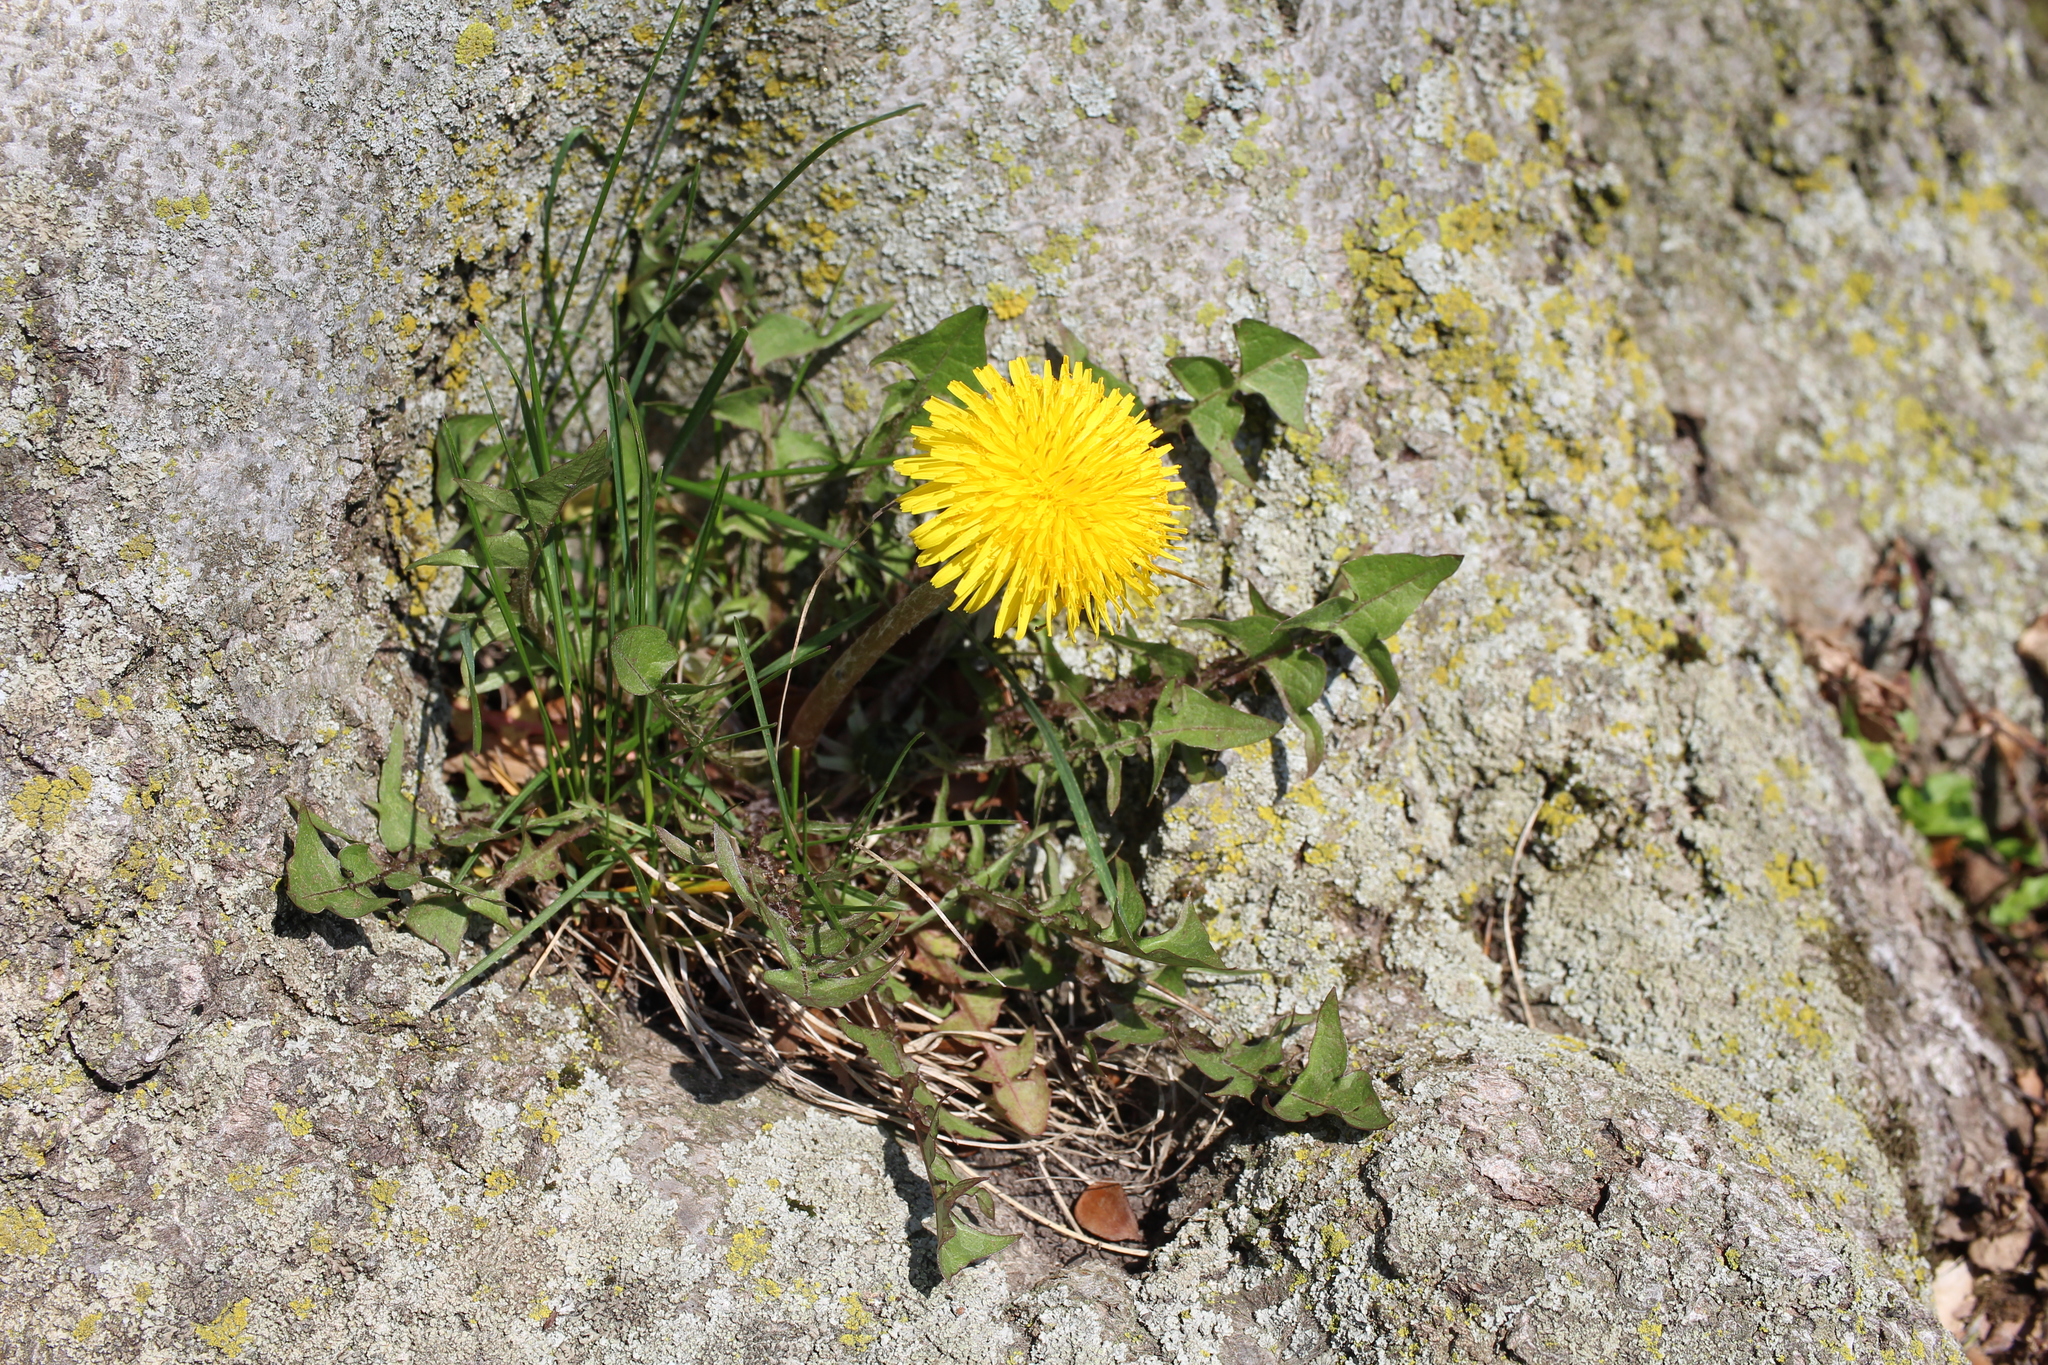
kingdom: Plantae
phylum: Tracheophyta
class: Magnoliopsida
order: Asterales
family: Asteraceae
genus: Taraxacum
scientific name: Taraxacum officinale
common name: Common dandelion
